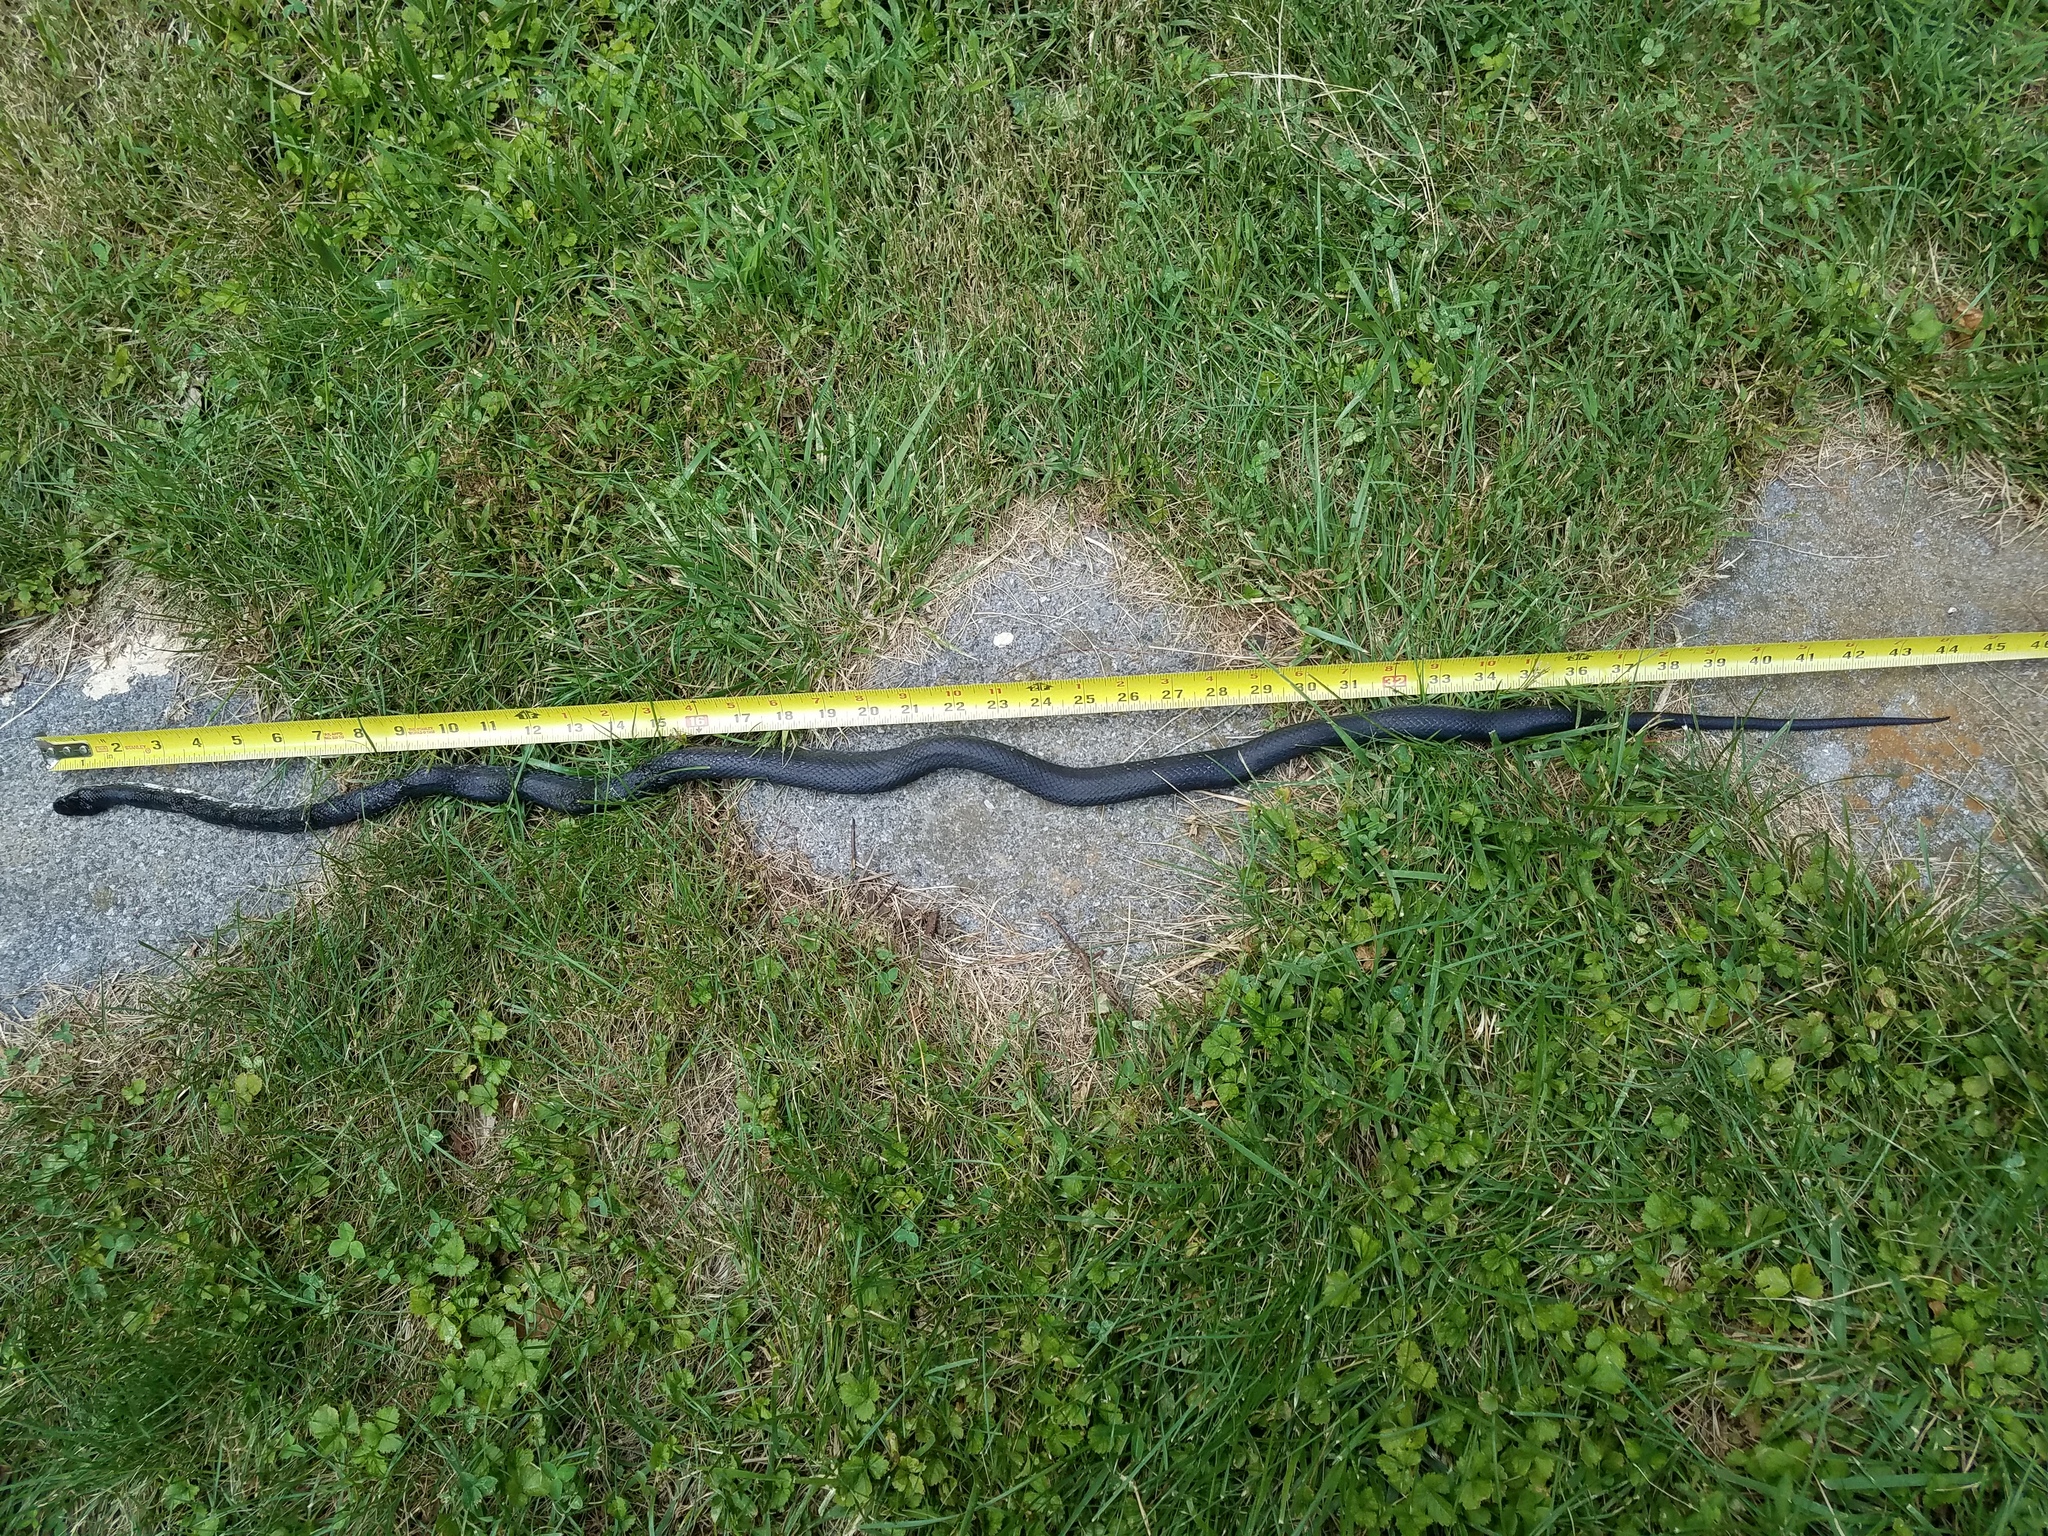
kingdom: Animalia
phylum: Chordata
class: Squamata
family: Colubridae
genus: Pantherophis
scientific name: Pantherophis alleghaniensis
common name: Eastern rat snake
